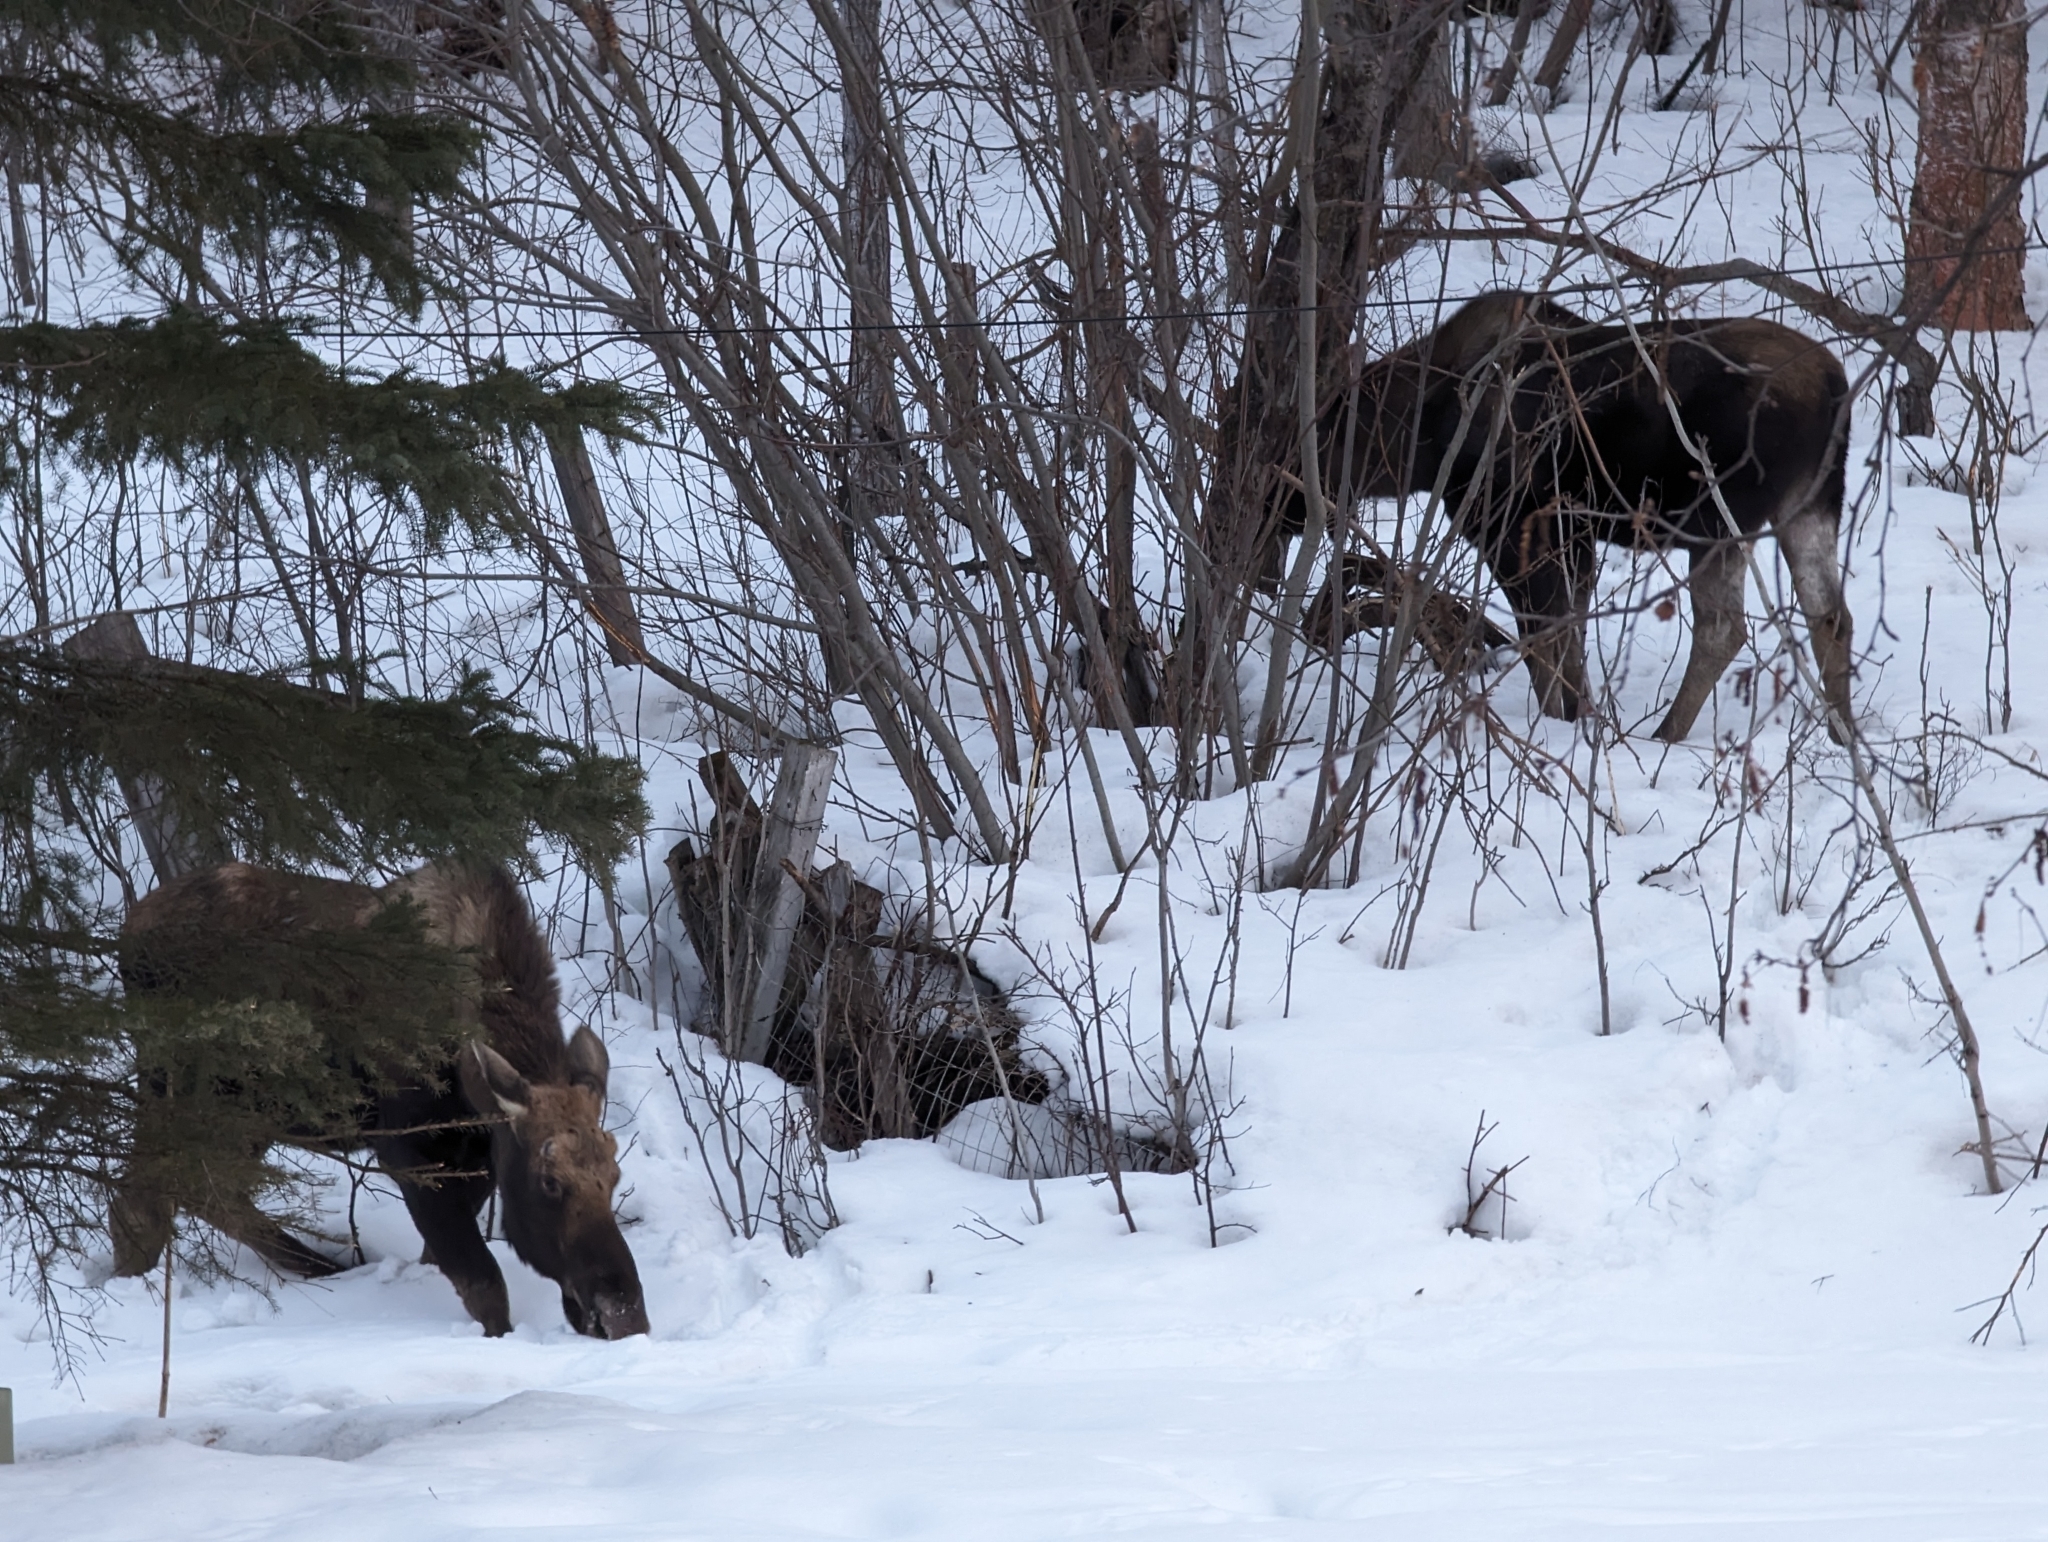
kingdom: Animalia
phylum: Chordata
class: Mammalia
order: Artiodactyla
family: Cervidae
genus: Alces
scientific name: Alces alces
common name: Moose
